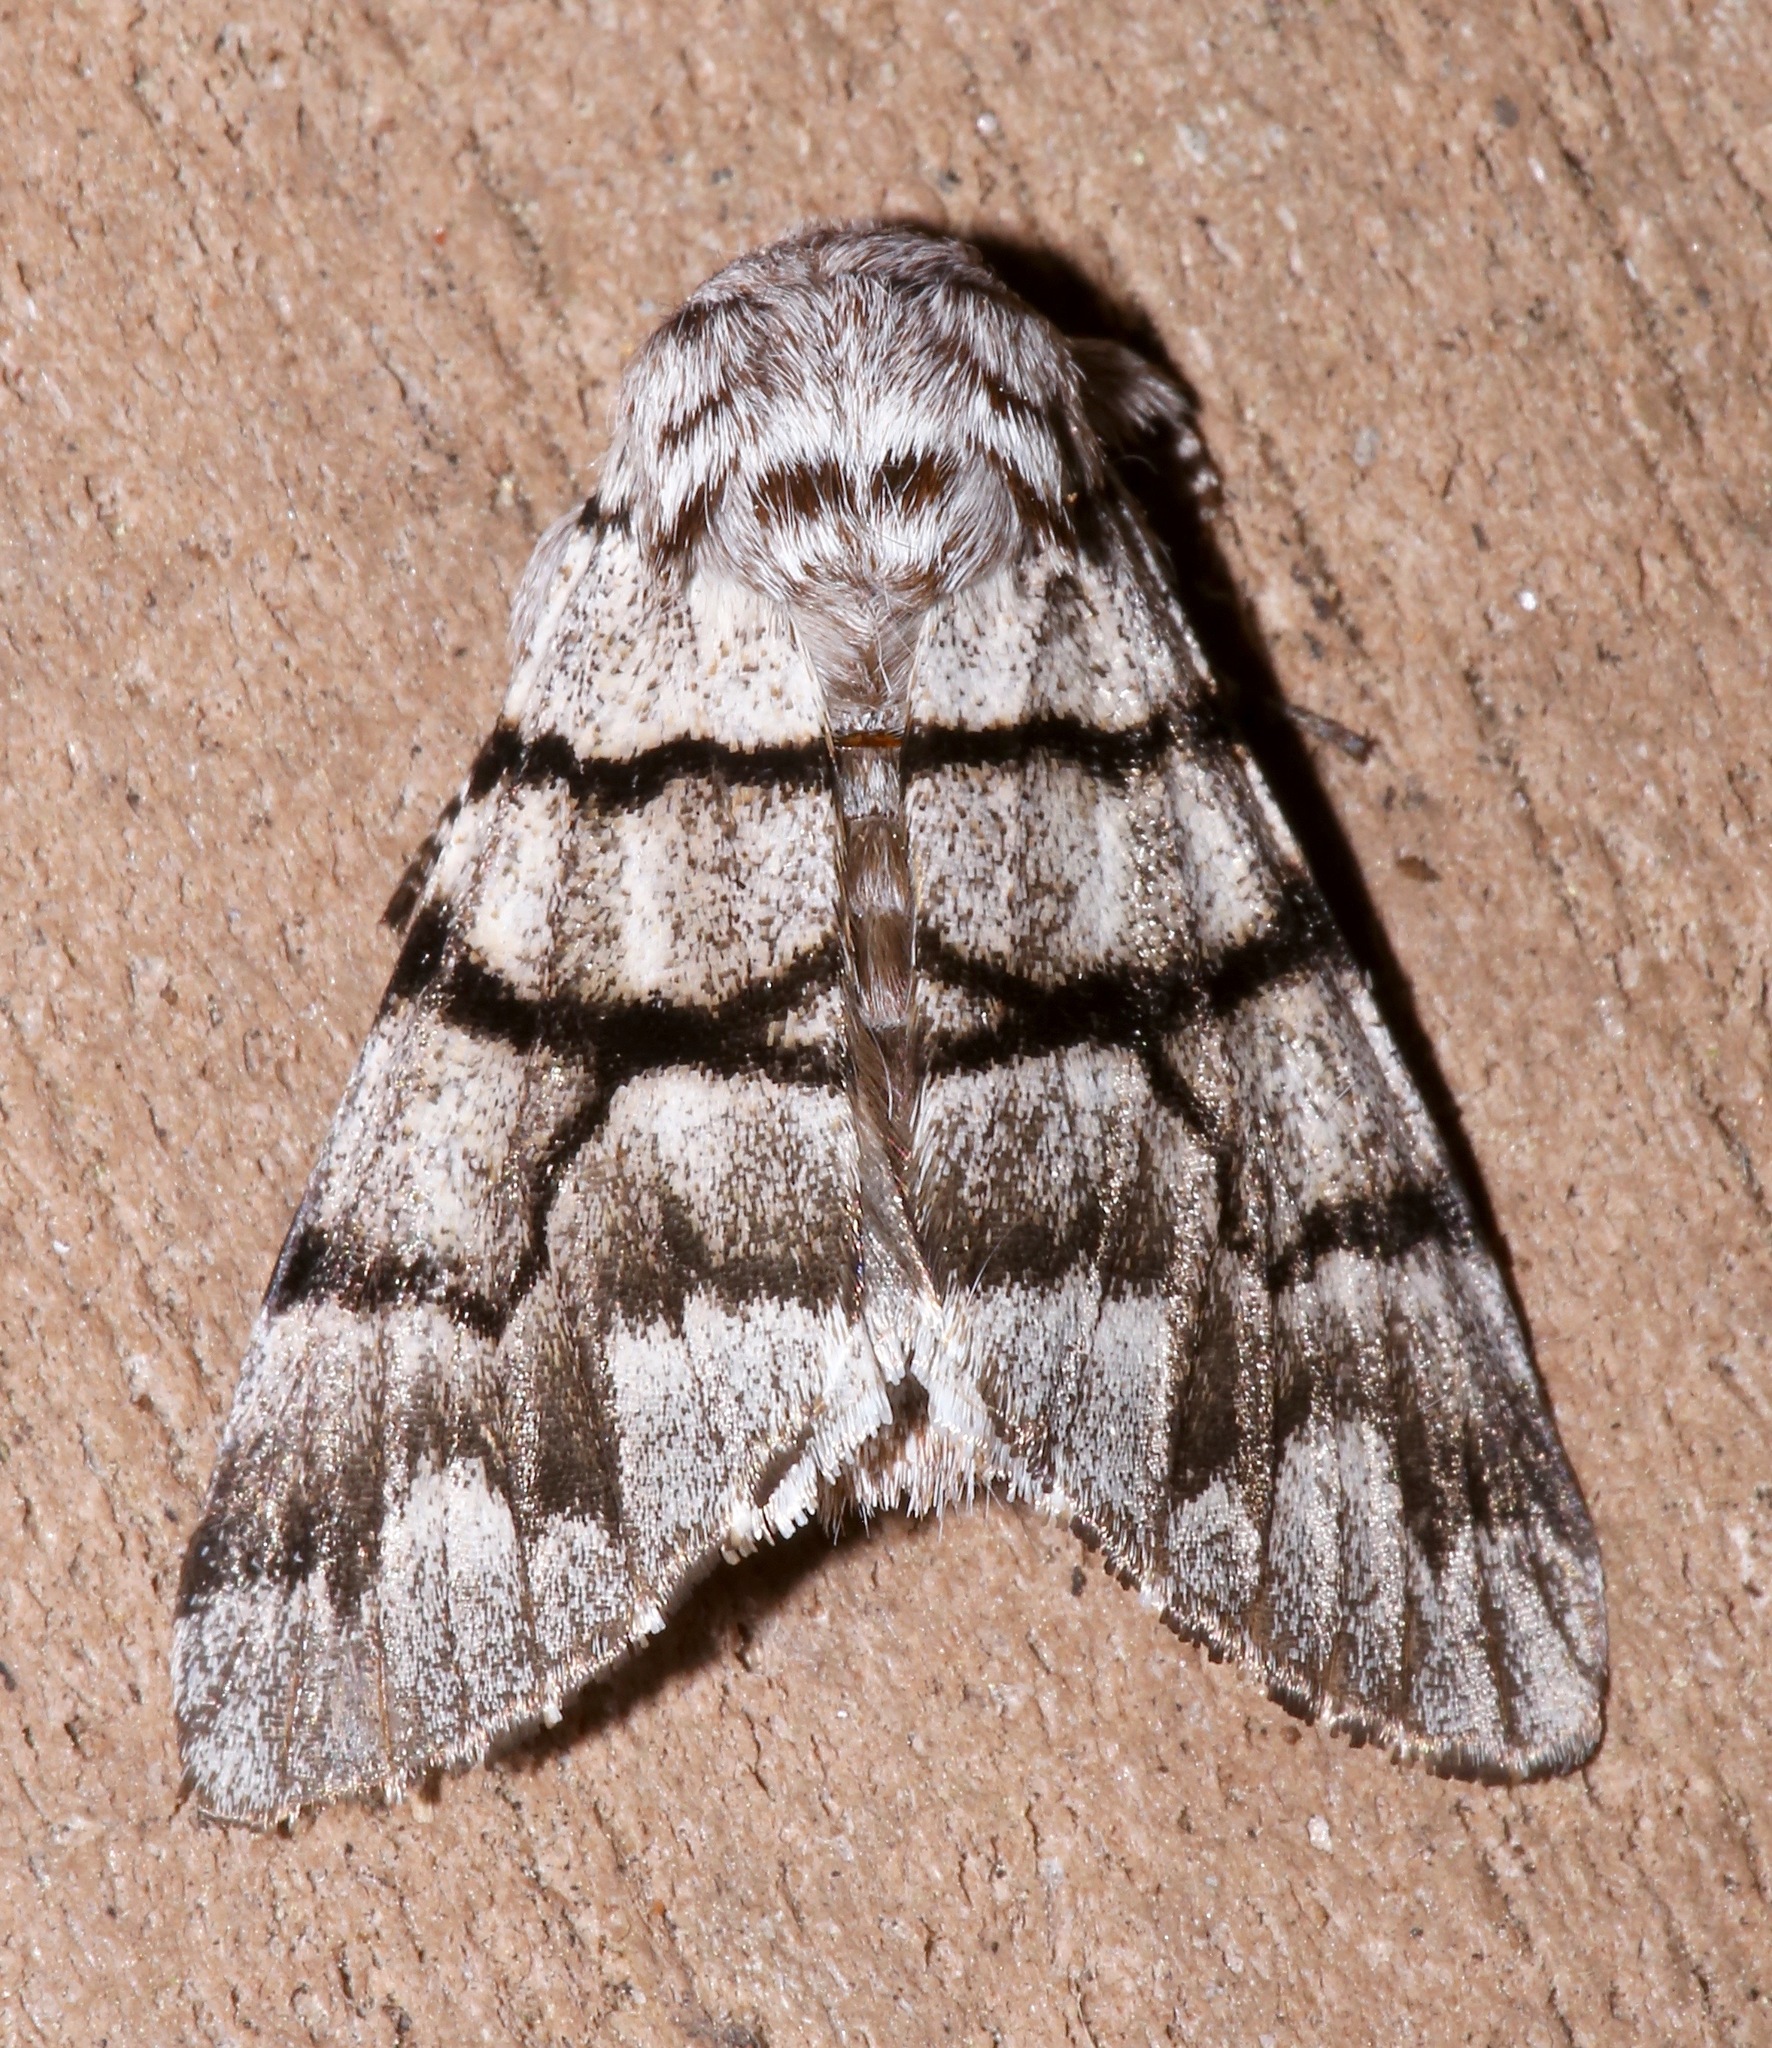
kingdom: Animalia
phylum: Arthropoda
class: Insecta
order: Lepidoptera
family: Noctuidae
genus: Panthea
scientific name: Panthea furcilla
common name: Eastern panthea moth
